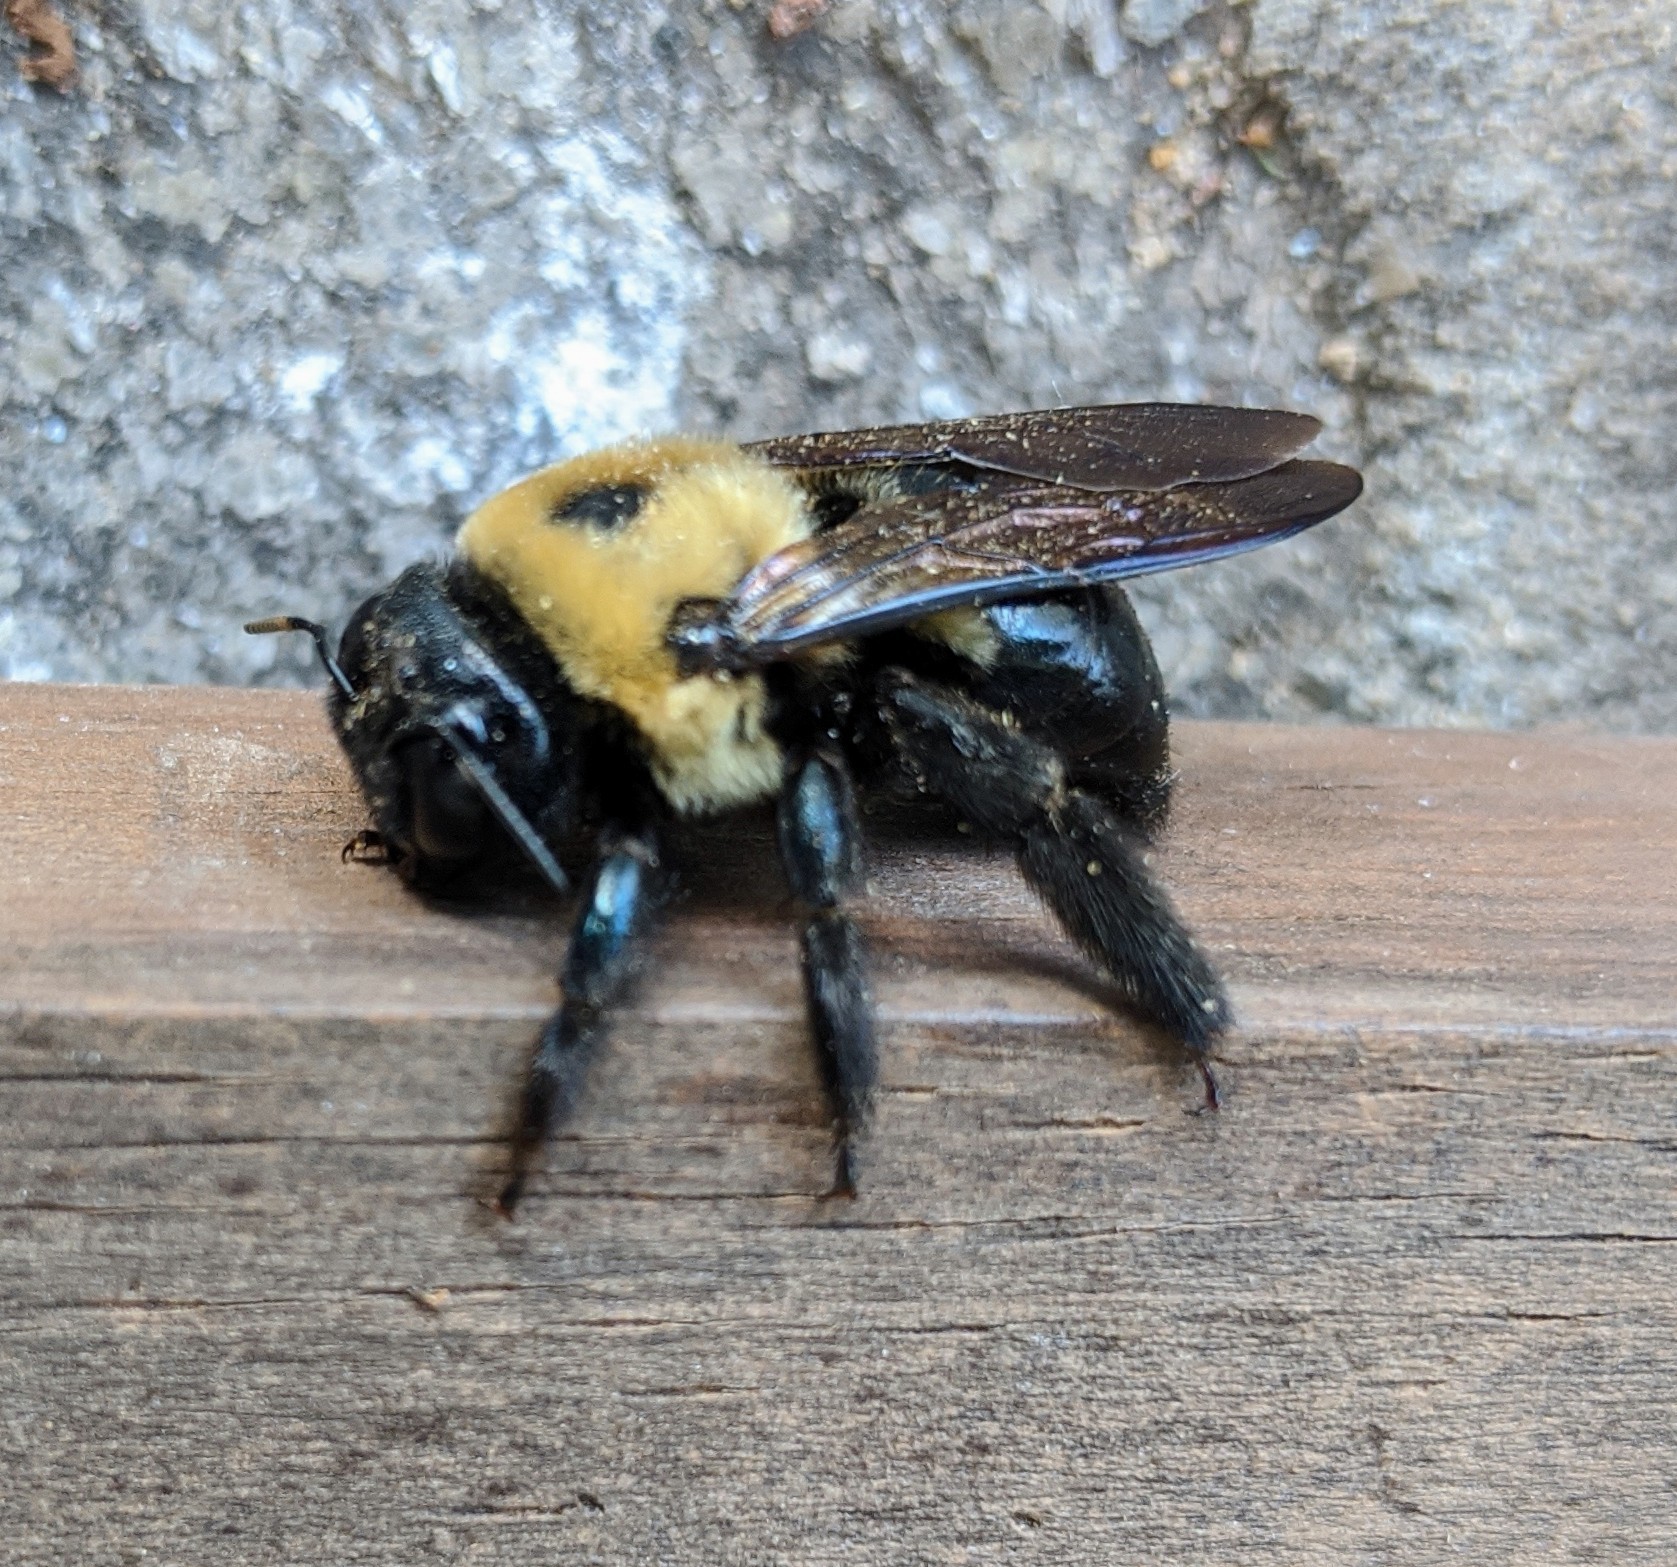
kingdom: Animalia
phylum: Arthropoda
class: Insecta
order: Hymenoptera
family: Apidae
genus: Xylocopa
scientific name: Xylocopa virginica
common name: Carpenter bee
